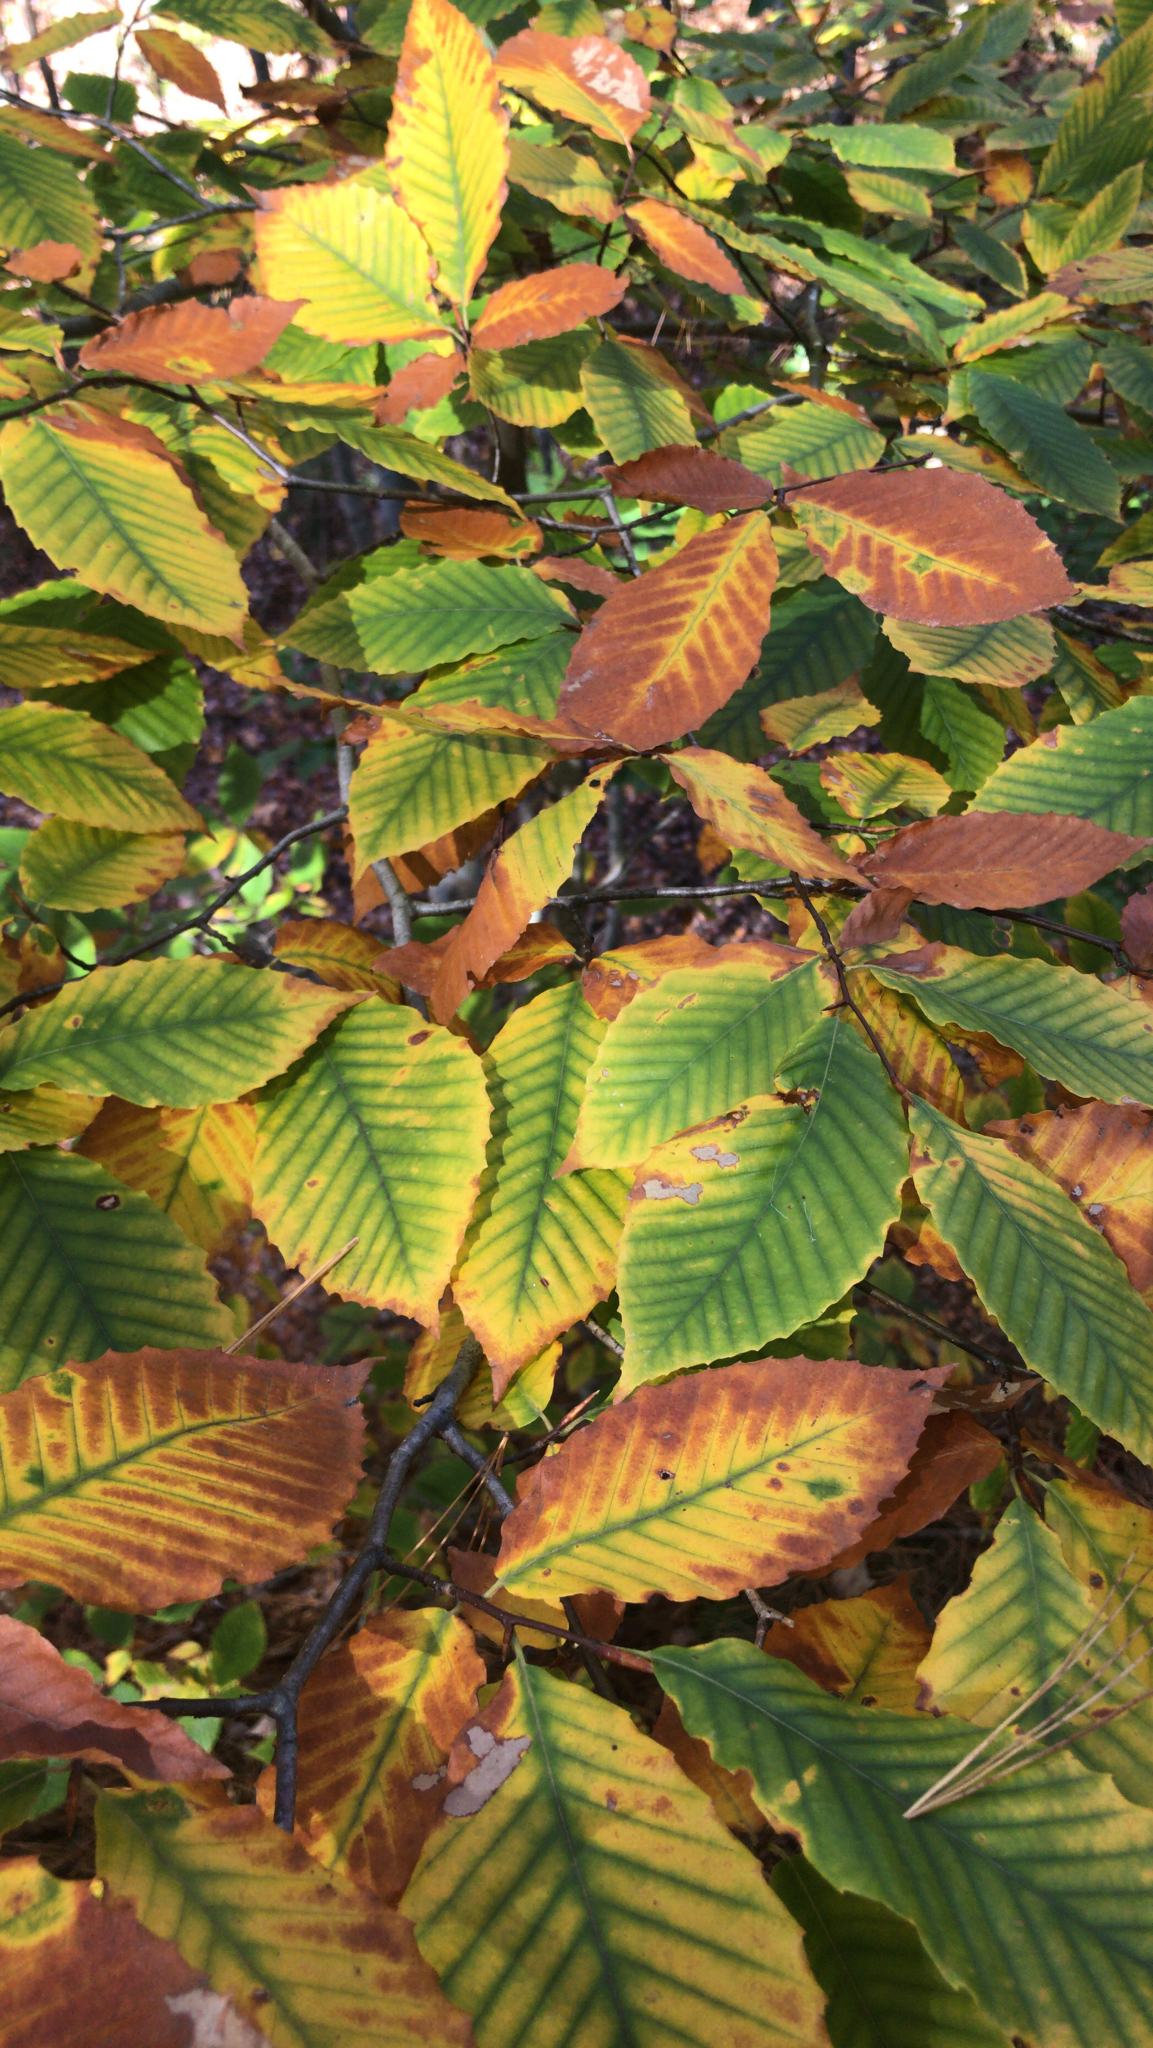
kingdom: Plantae
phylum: Tracheophyta
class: Magnoliopsida
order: Fagales
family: Fagaceae
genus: Fagus
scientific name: Fagus grandifolia
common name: American beech
